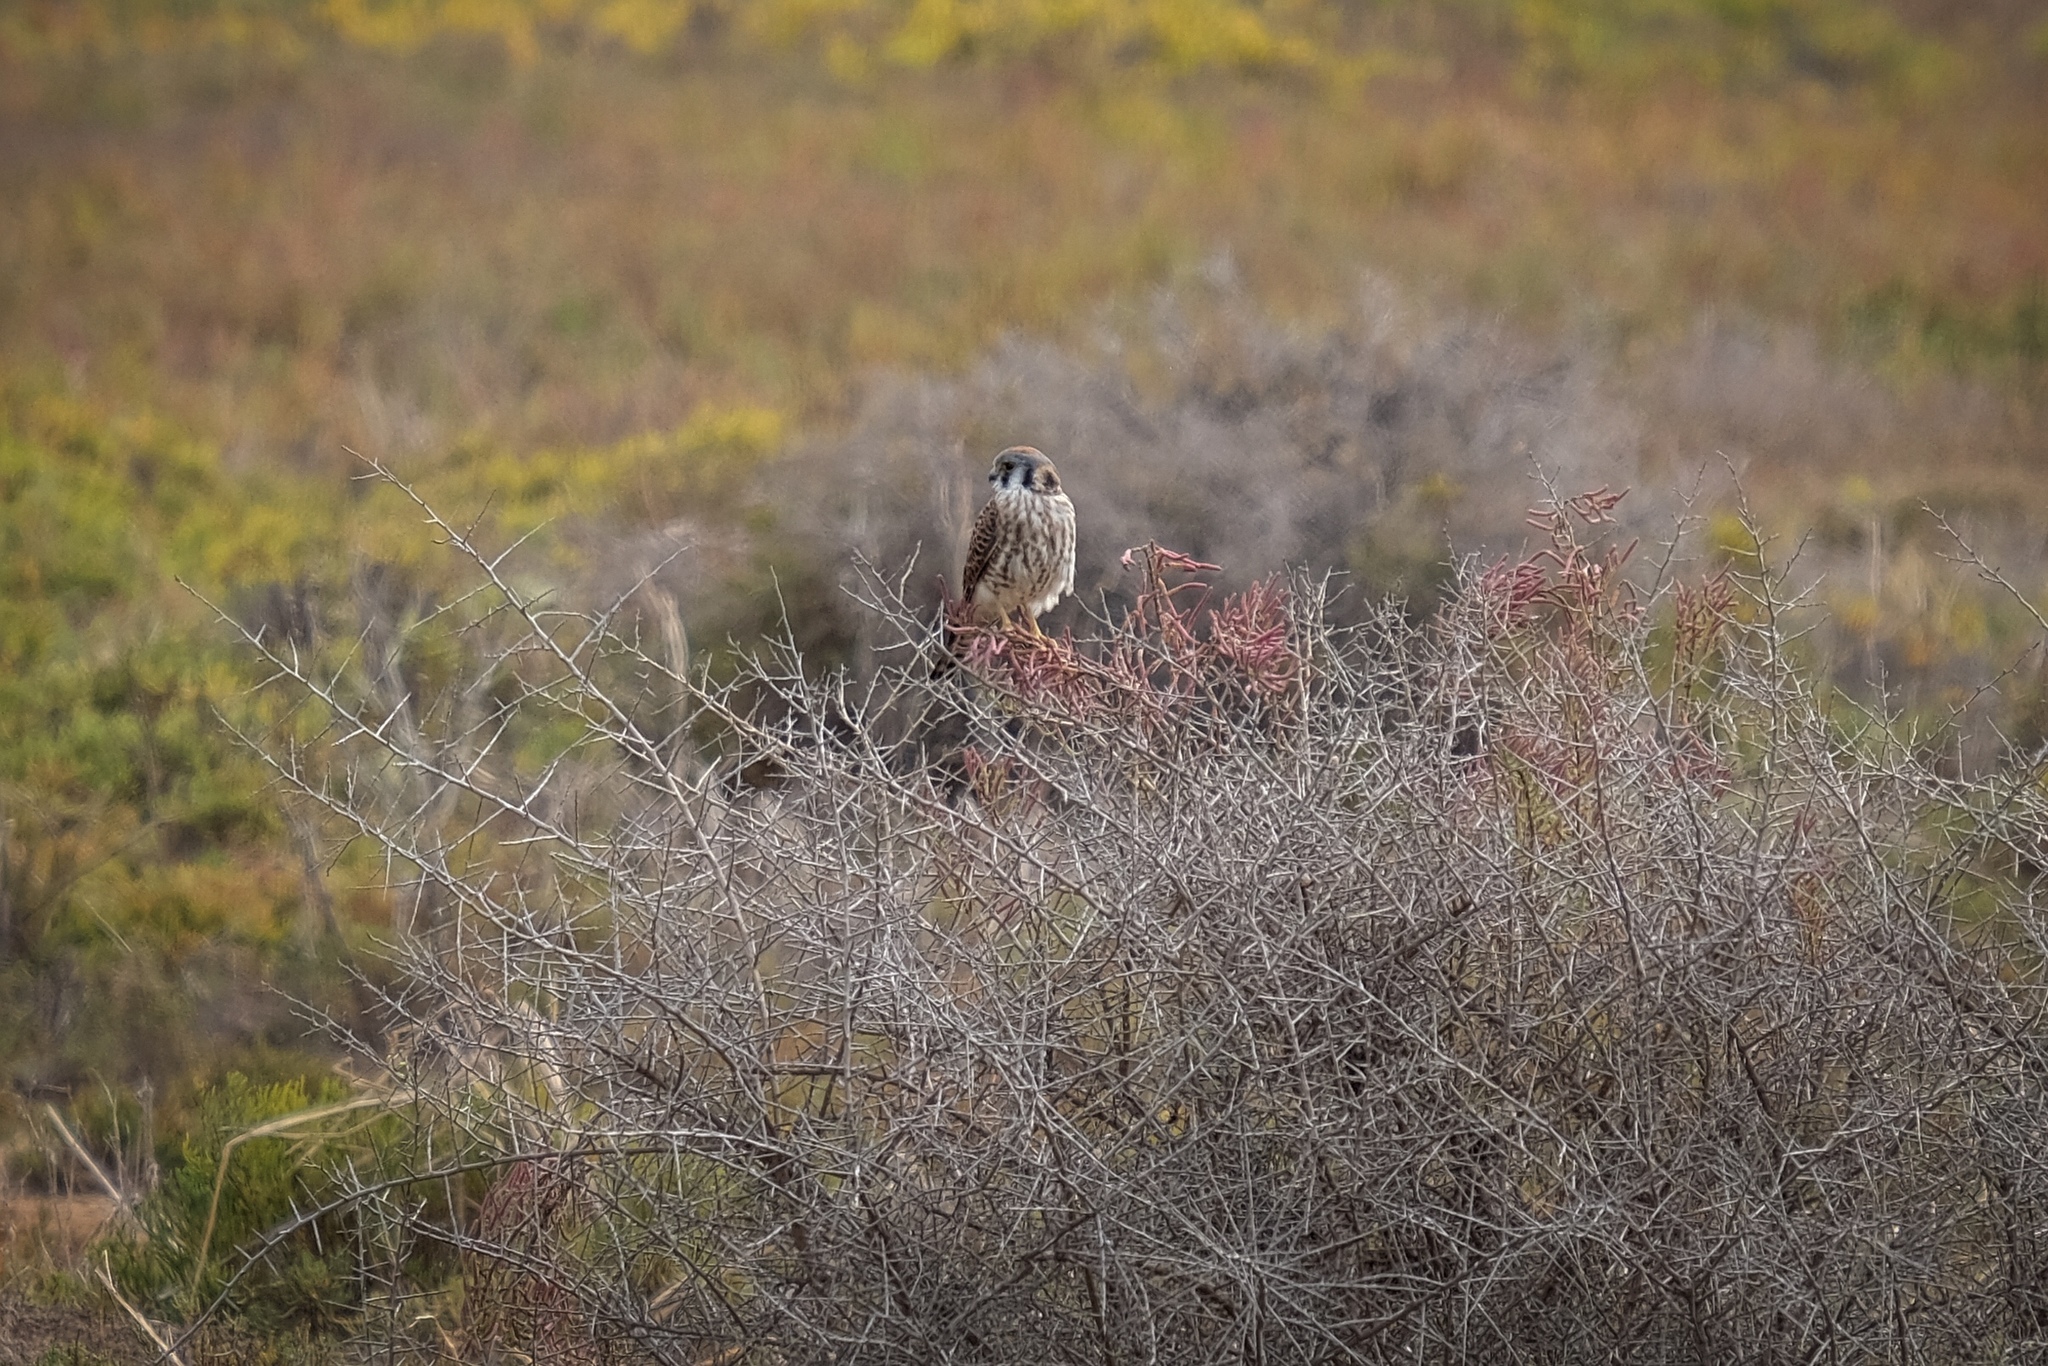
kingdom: Animalia
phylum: Chordata
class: Aves
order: Falconiformes
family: Falconidae
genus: Falco
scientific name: Falco sparverius
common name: American kestrel
